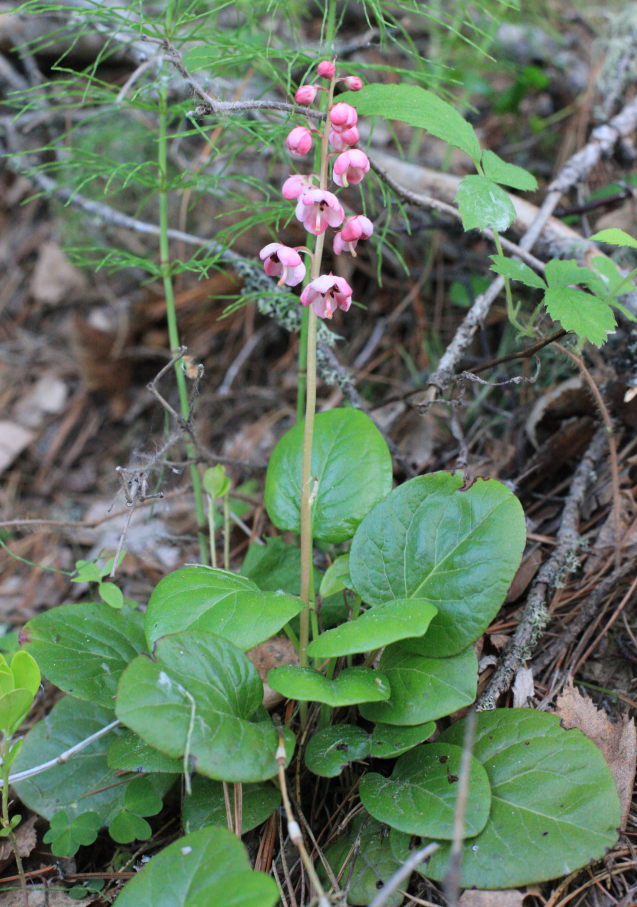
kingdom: Plantae
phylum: Tracheophyta
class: Magnoliopsida
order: Ericales
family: Ericaceae
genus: Pyrola
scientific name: Pyrola rotundifolia
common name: Round-leaved wintergreen
